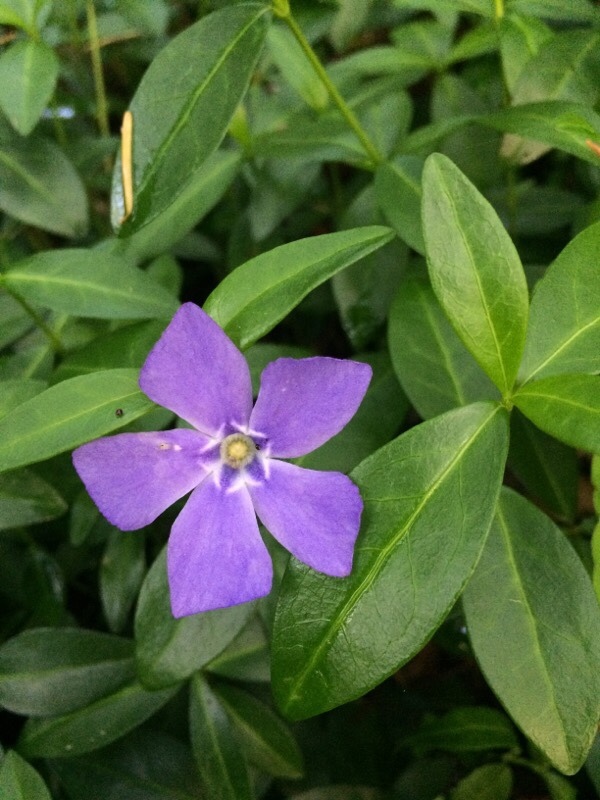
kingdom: Plantae
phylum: Tracheophyta
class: Magnoliopsida
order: Gentianales
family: Apocynaceae
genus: Vinca
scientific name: Vinca minor
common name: Lesser periwinkle
